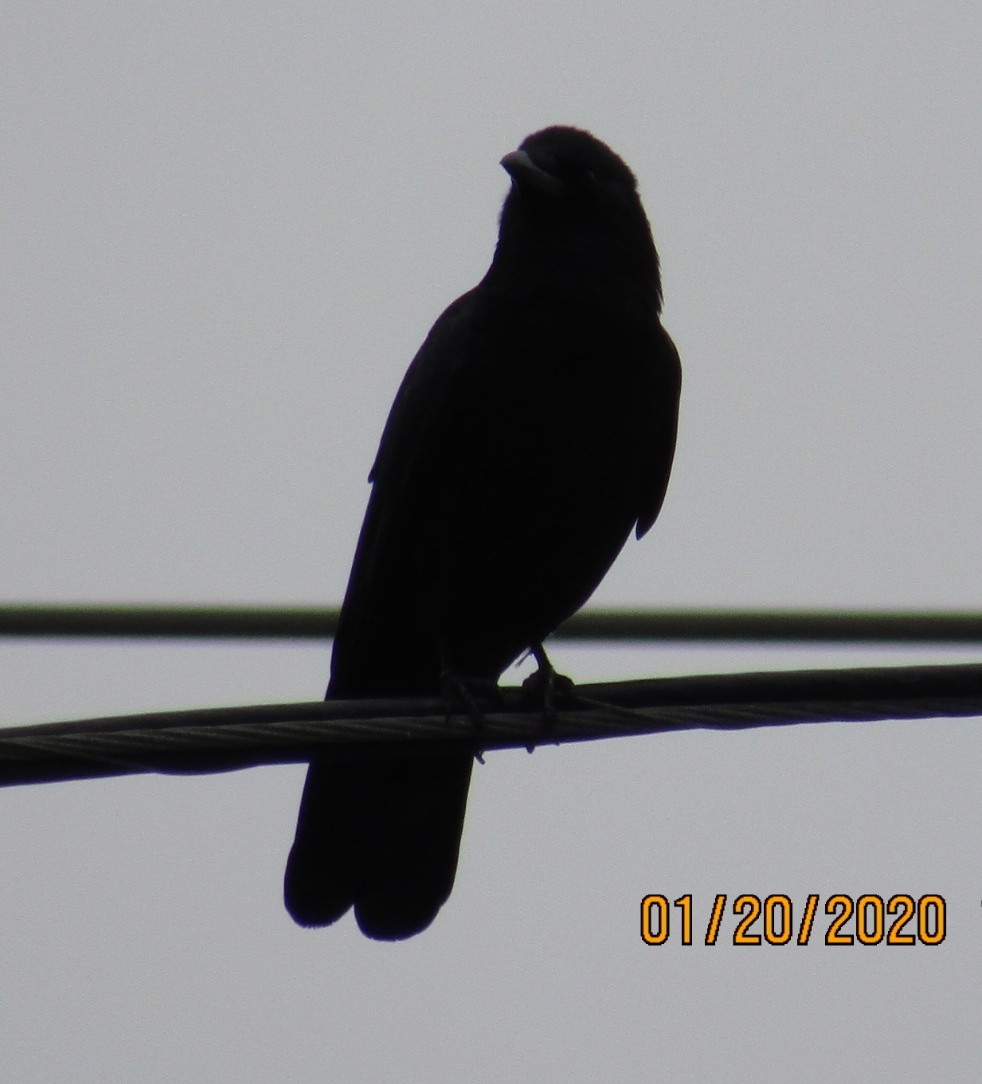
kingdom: Animalia
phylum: Chordata
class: Aves
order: Passeriformes
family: Corvidae
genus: Corvus
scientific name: Corvus brachyrhynchos
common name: American crow
